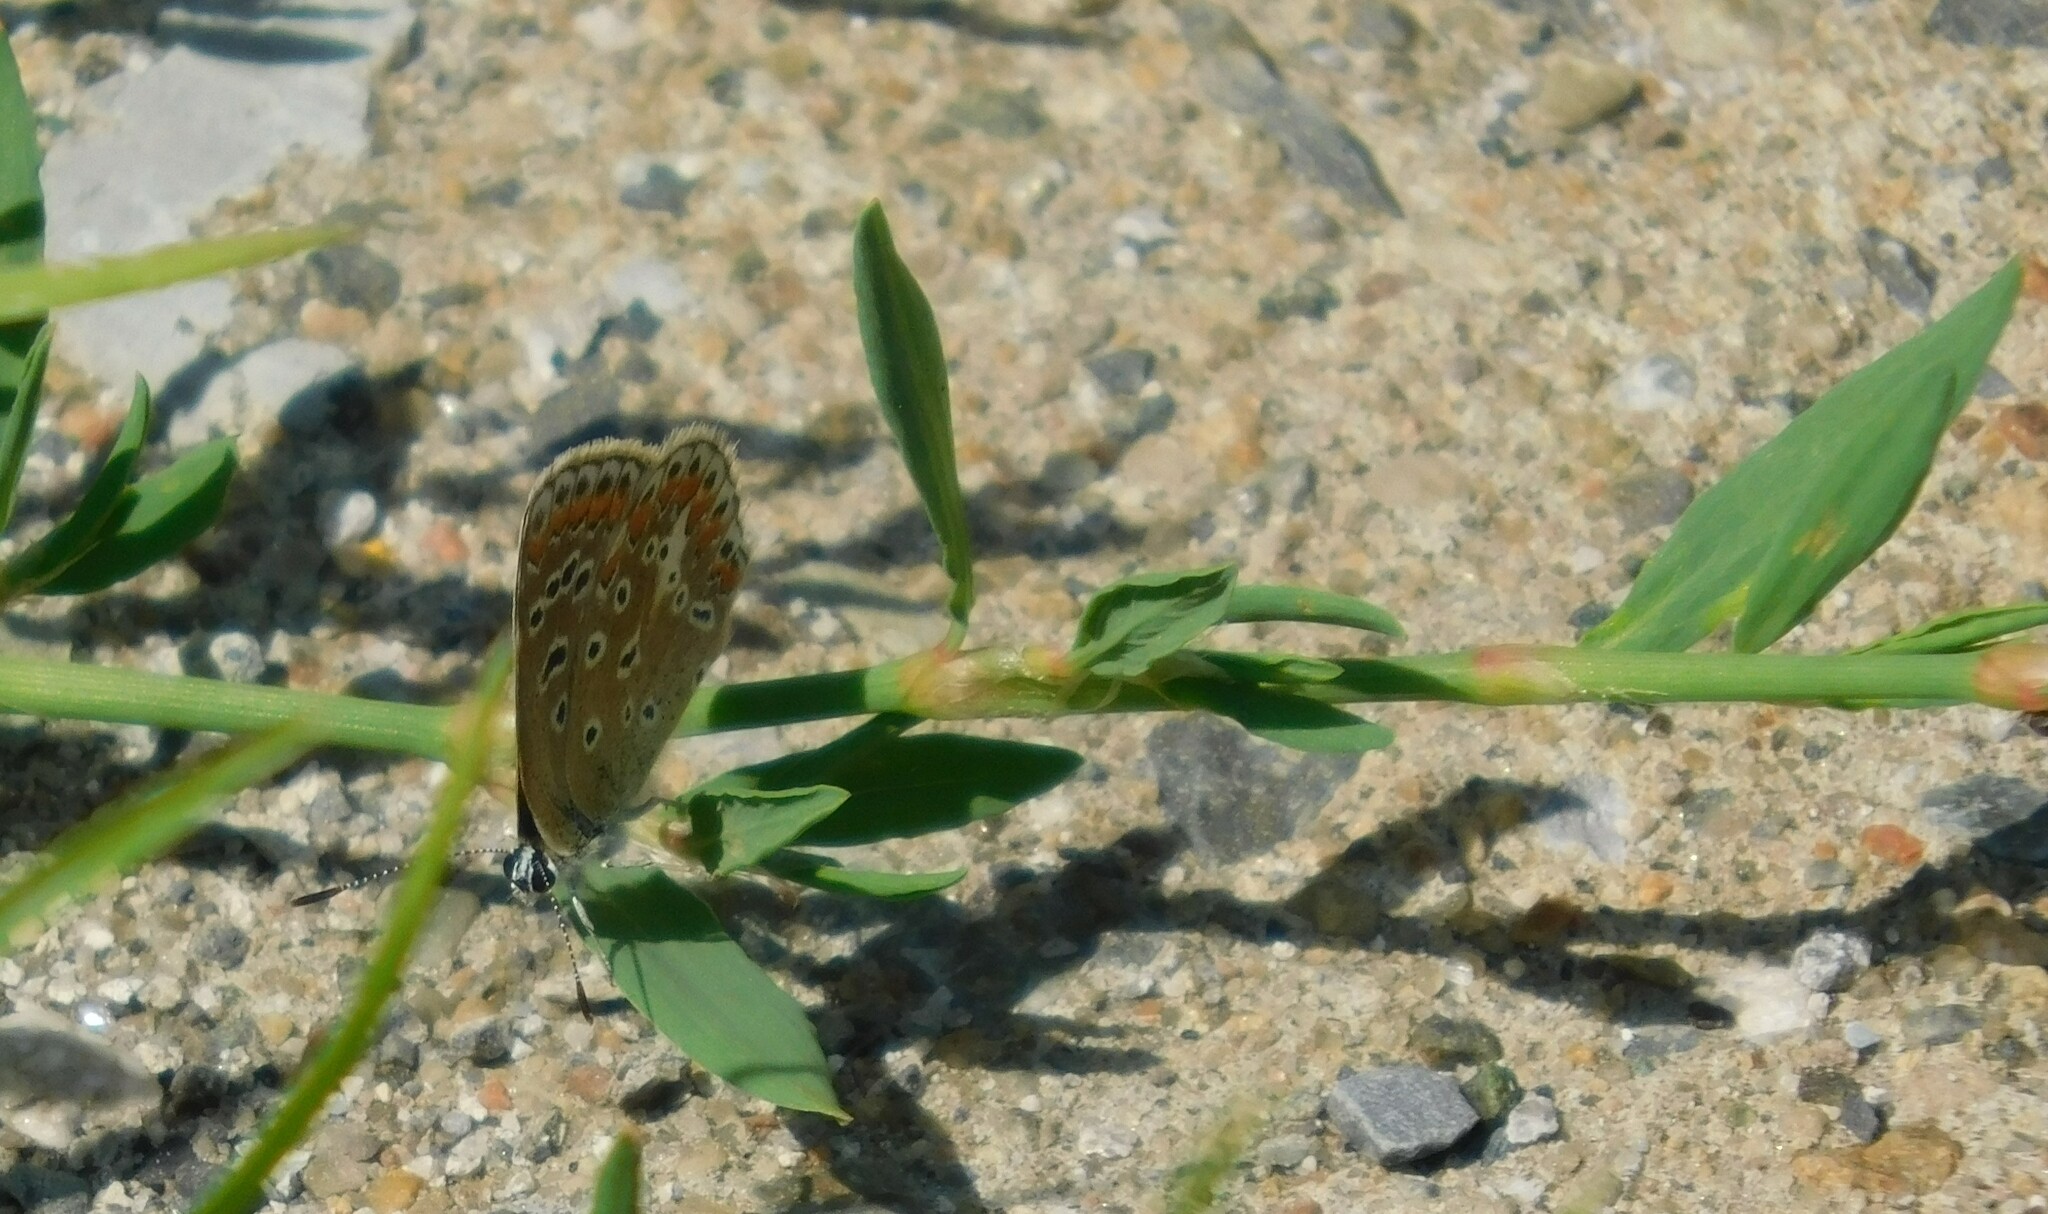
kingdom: Animalia
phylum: Arthropoda
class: Insecta
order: Lepidoptera
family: Lycaenidae
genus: Polyommatus
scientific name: Polyommatus icarus
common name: Common blue
